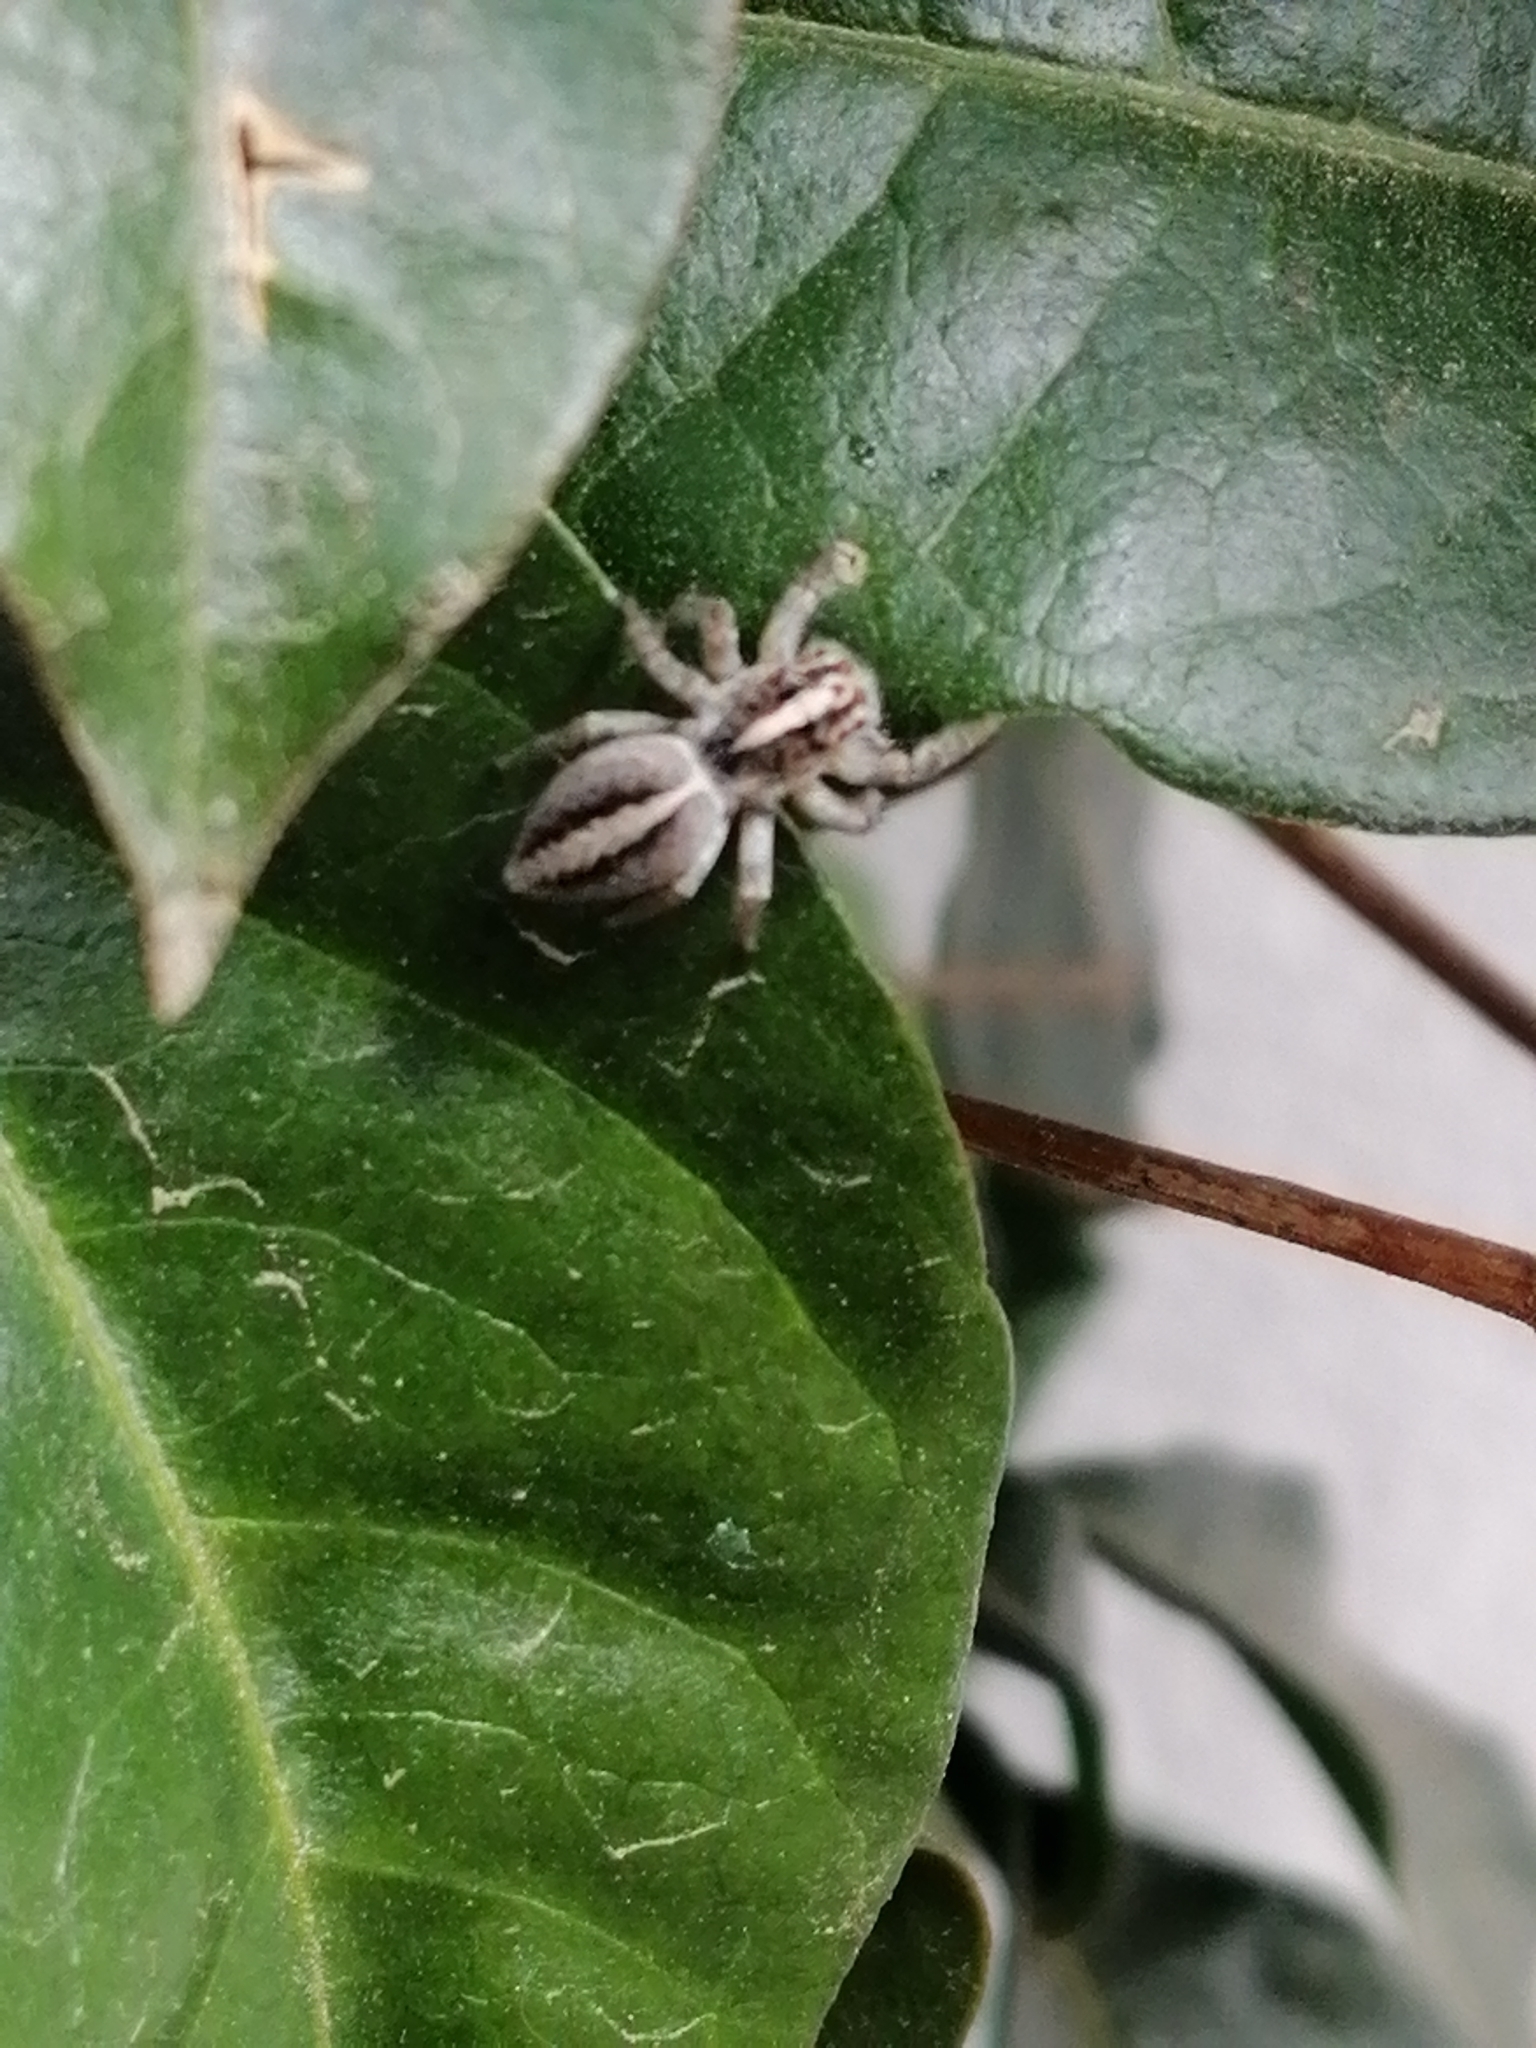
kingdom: Animalia
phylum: Arthropoda
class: Arachnida
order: Araneae
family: Salticidae
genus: Frigga
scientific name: Frigga crocuta
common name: Jumping spiders
